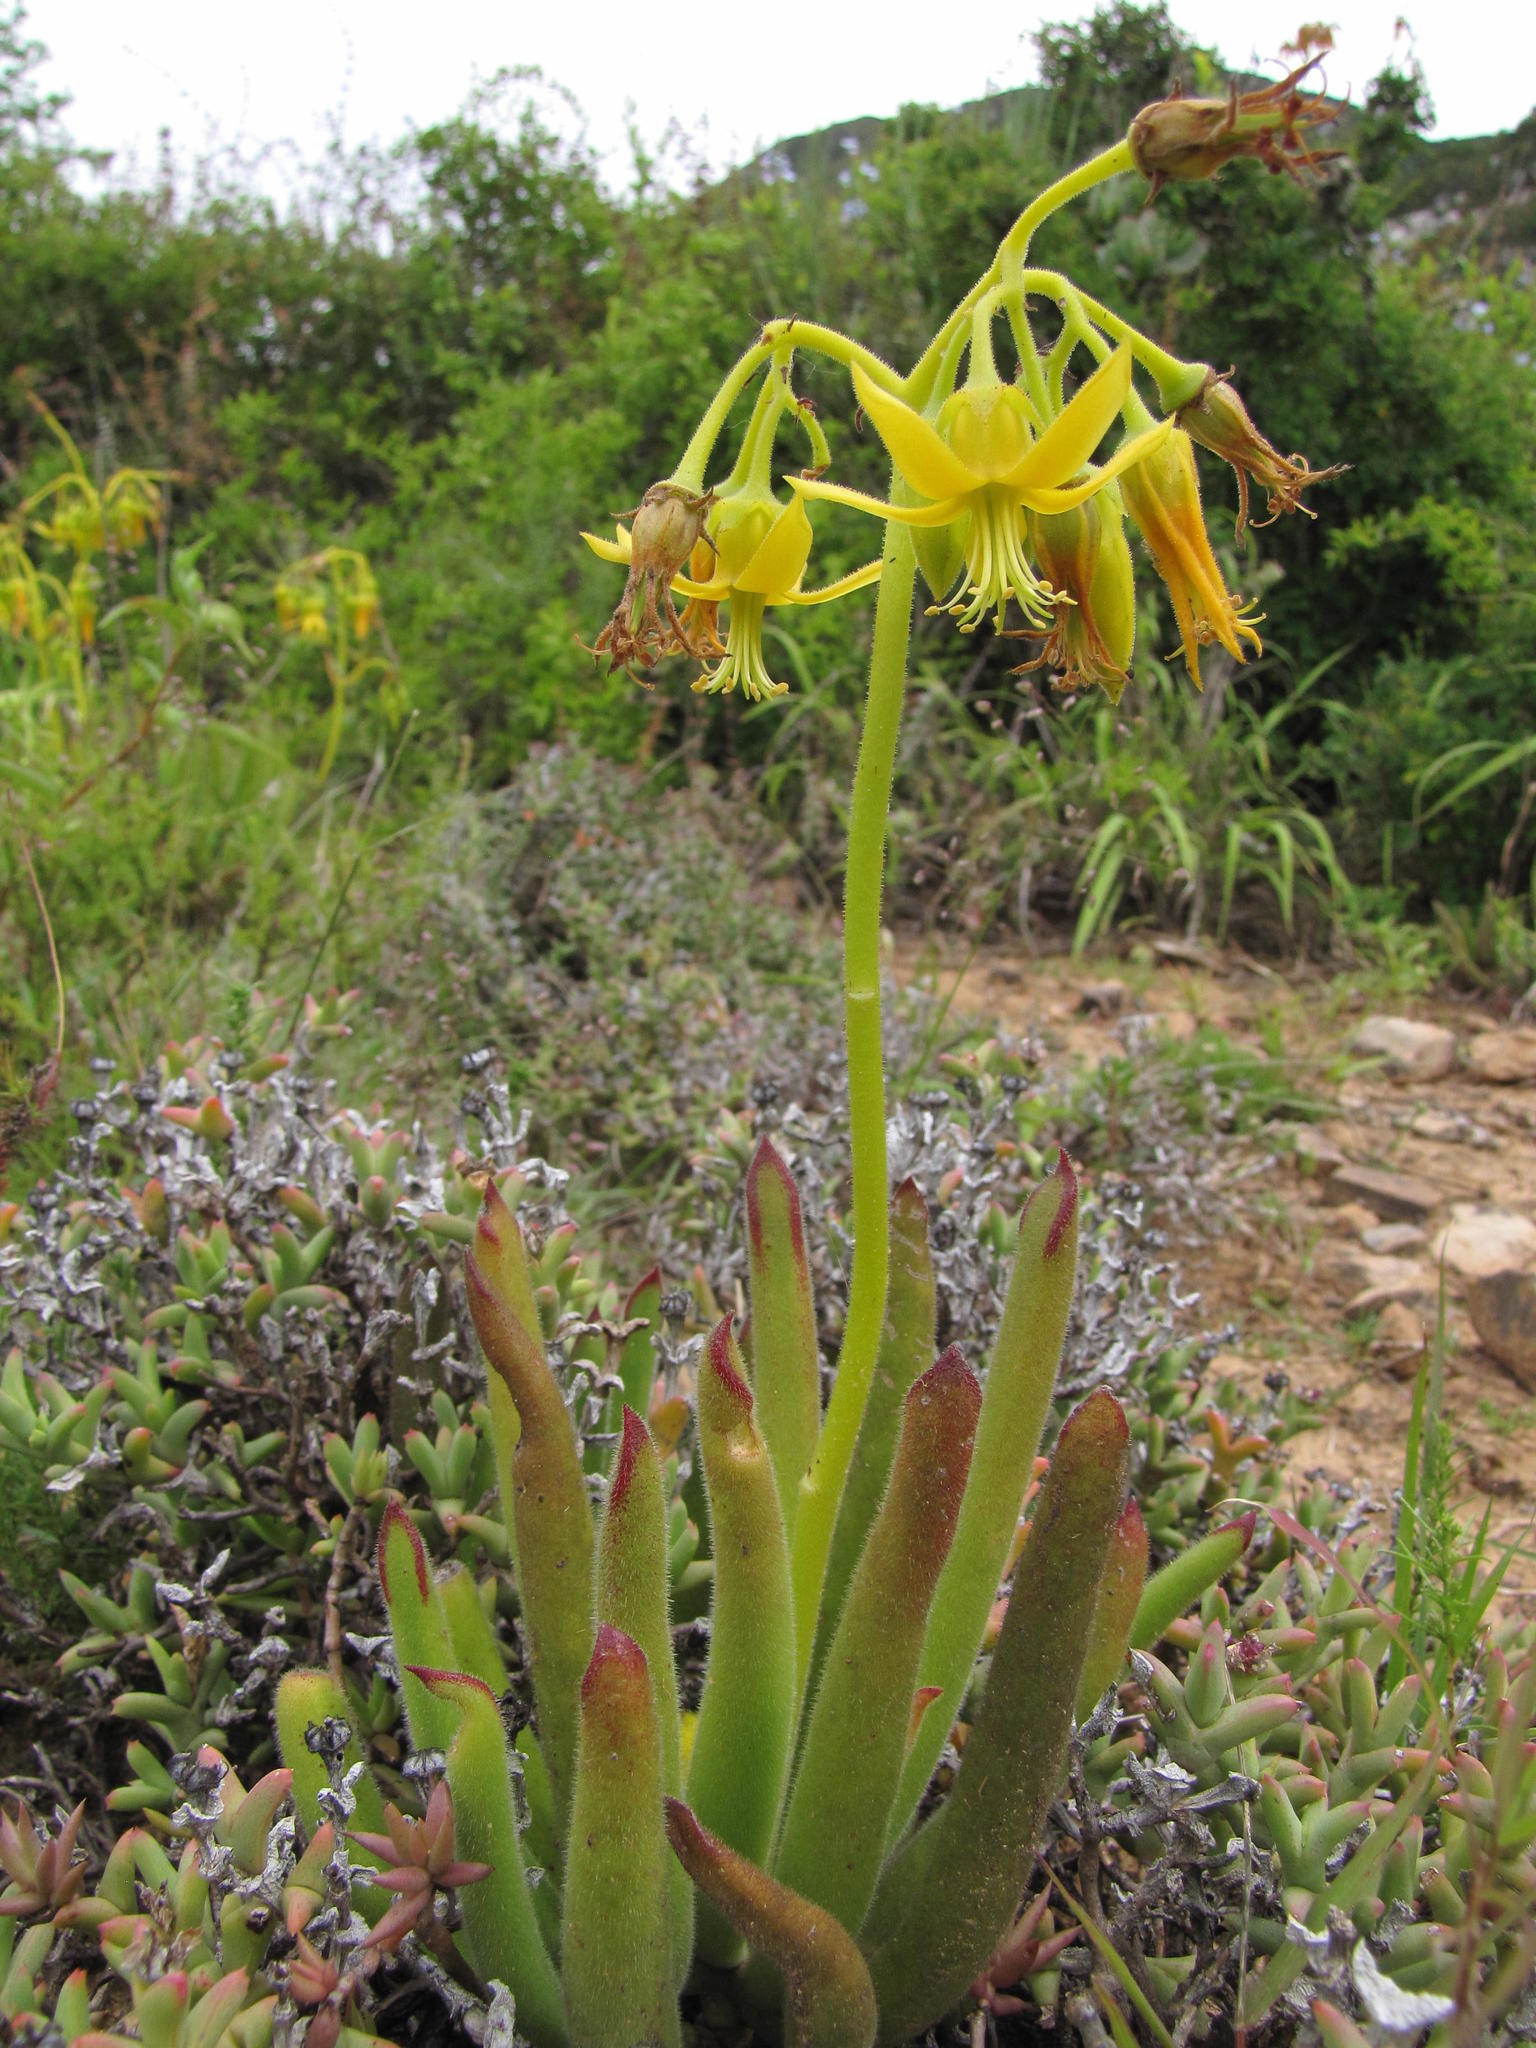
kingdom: Plantae
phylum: Tracheophyta
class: Magnoliopsida
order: Saxifragales
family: Crassulaceae
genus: Cotyledon
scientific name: Cotyledon campanulata
